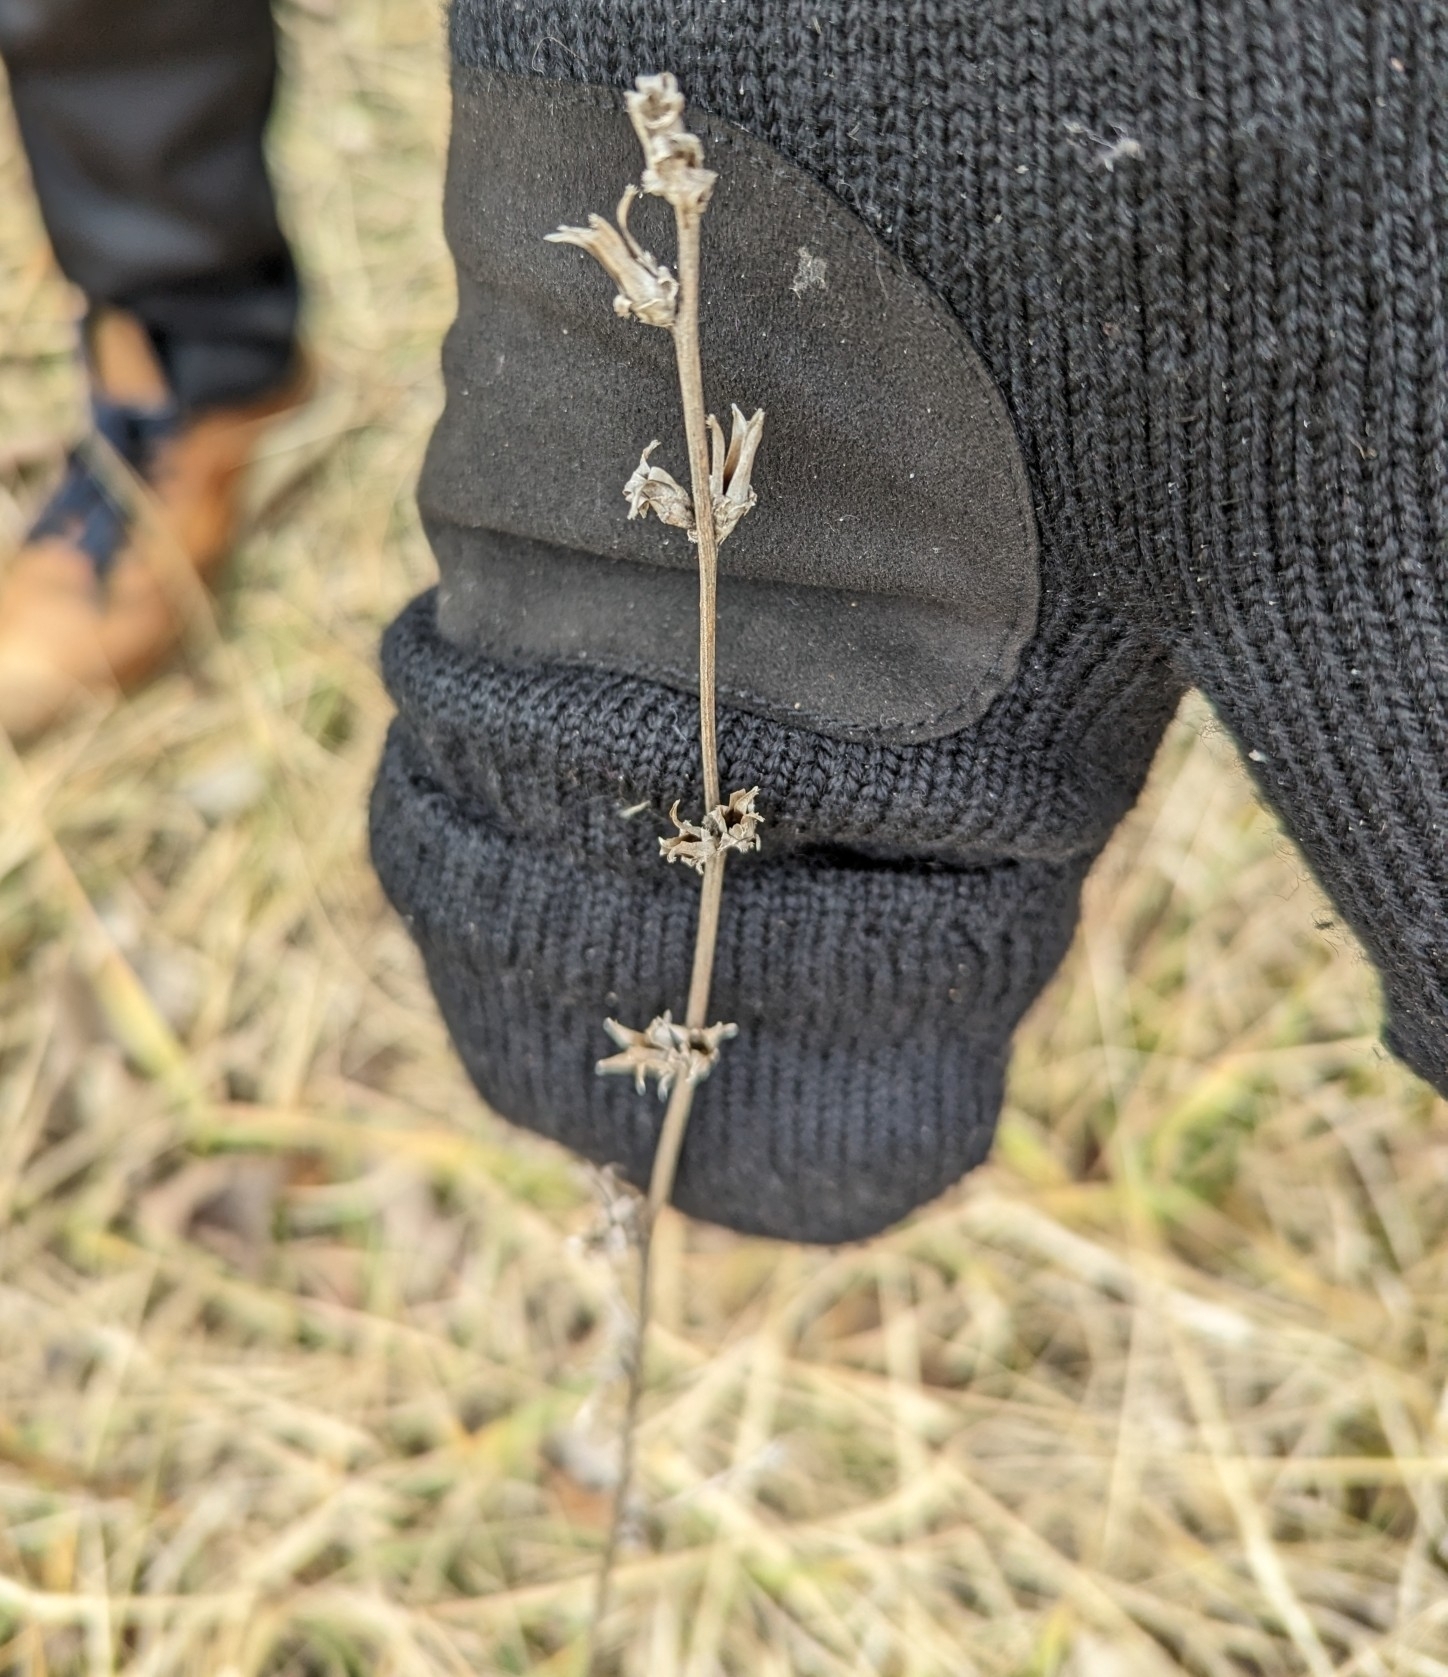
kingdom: Plantae
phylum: Tracheophyta
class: Magnoliopsida
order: Asterales
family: Asteraceae
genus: Cichorium
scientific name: Cichorium intybus
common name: Chicory
